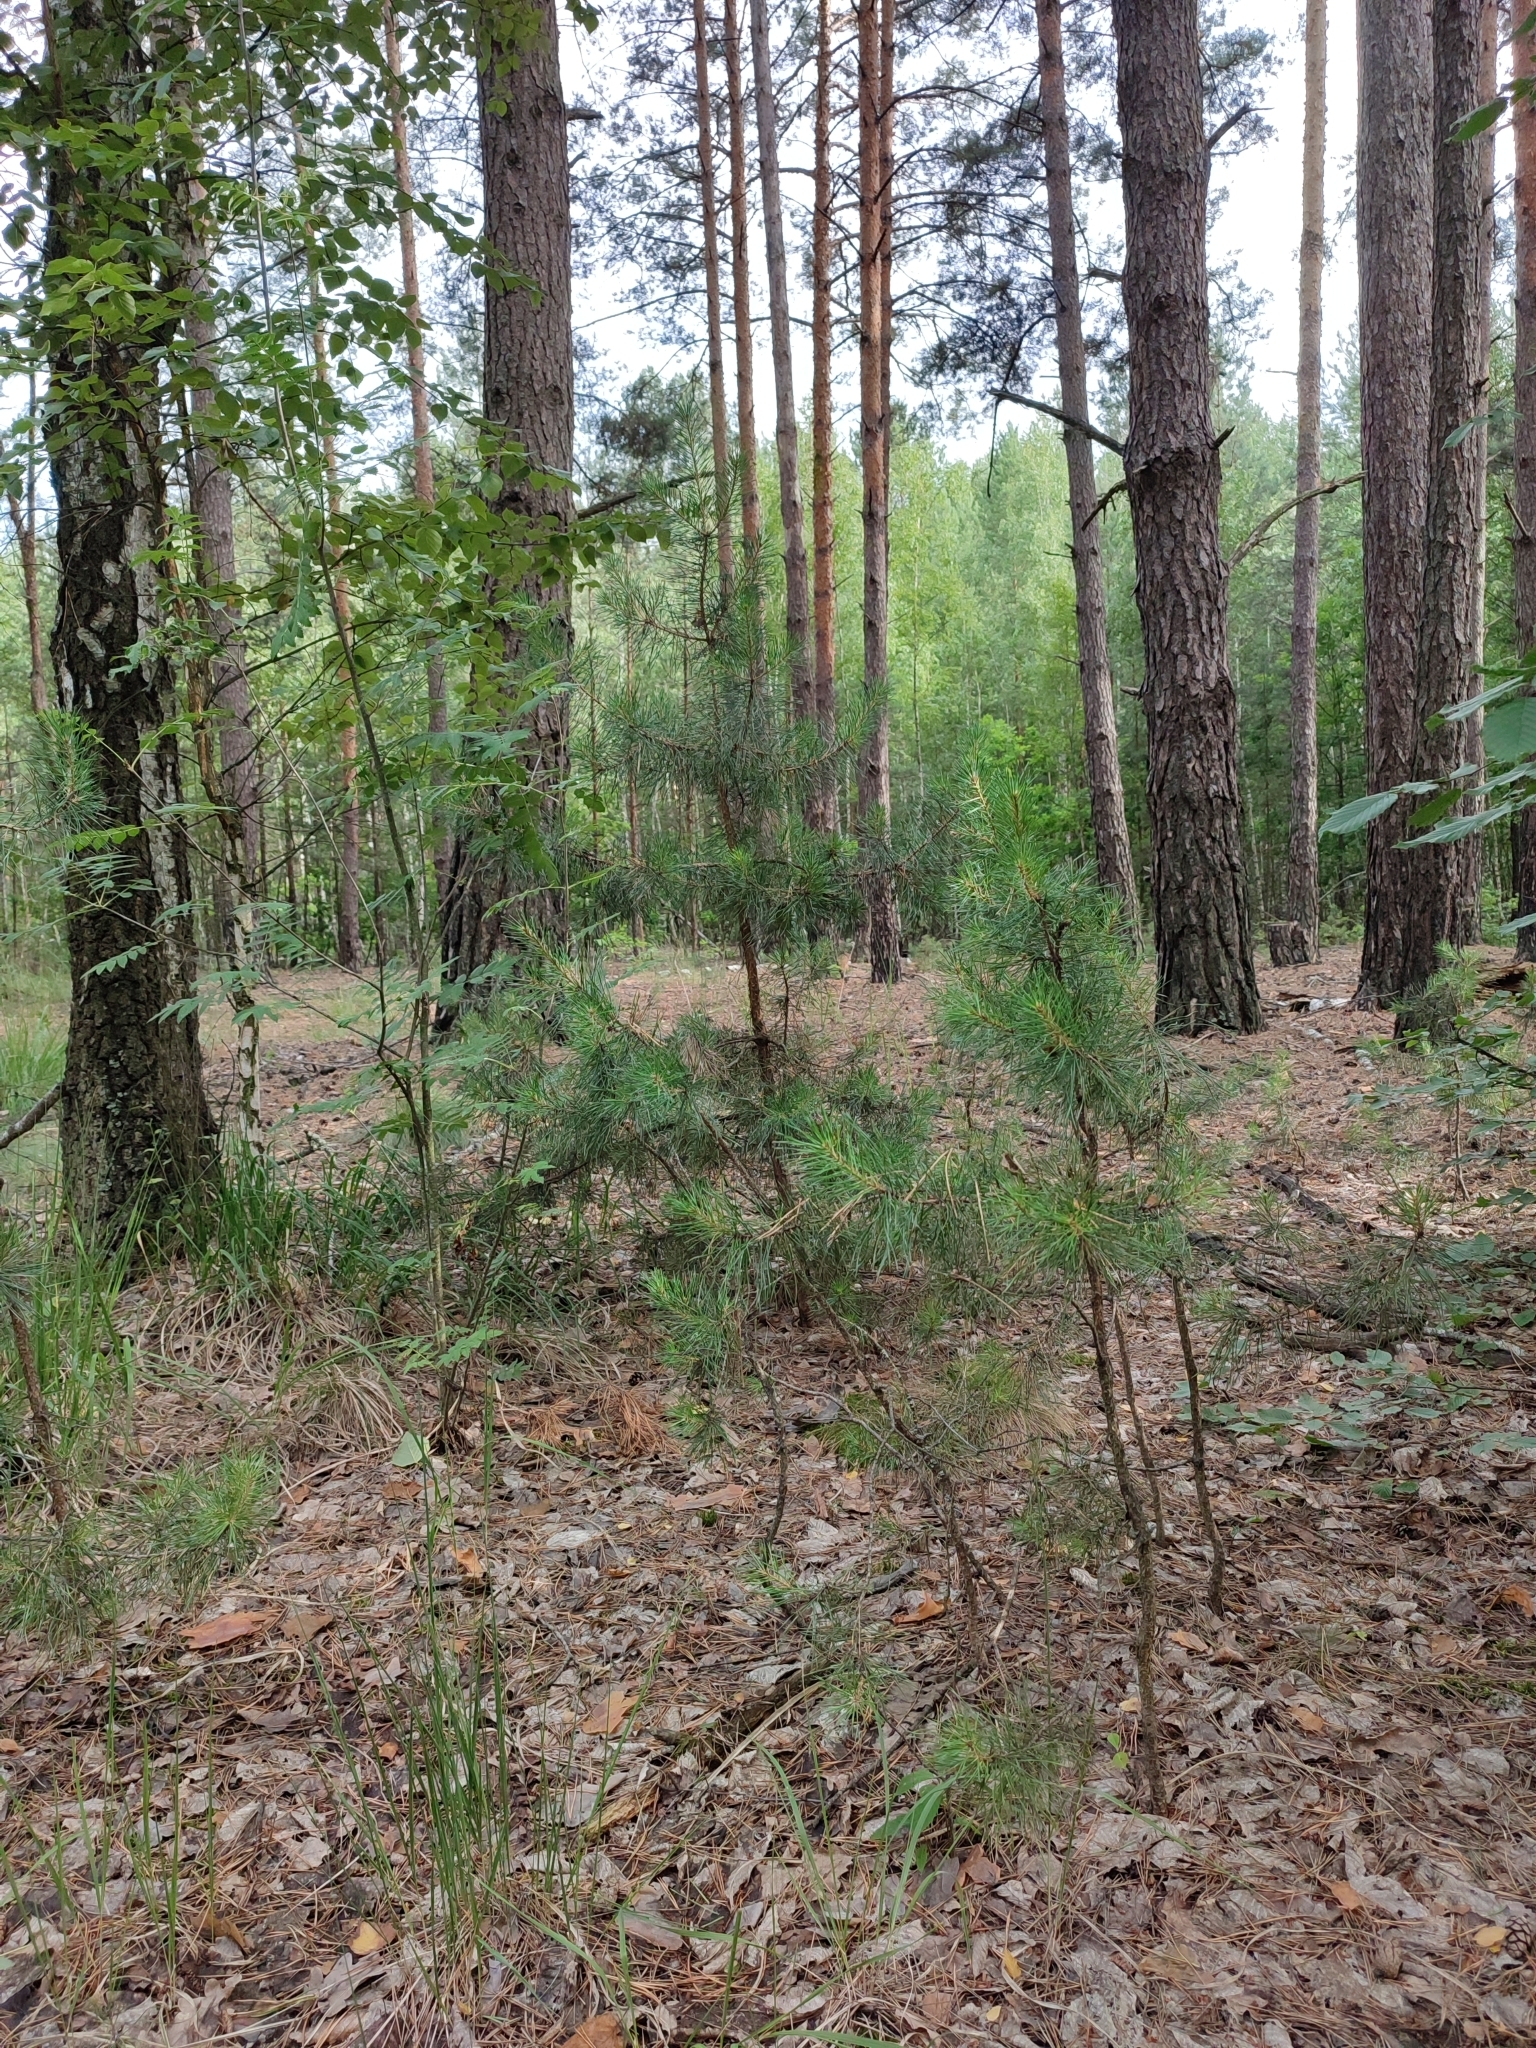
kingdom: Plantae
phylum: Tracheophyta
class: Pinopsida
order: Pinales
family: Pinaceae
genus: Pinus
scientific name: Pinus sylvestris
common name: Scots pine
